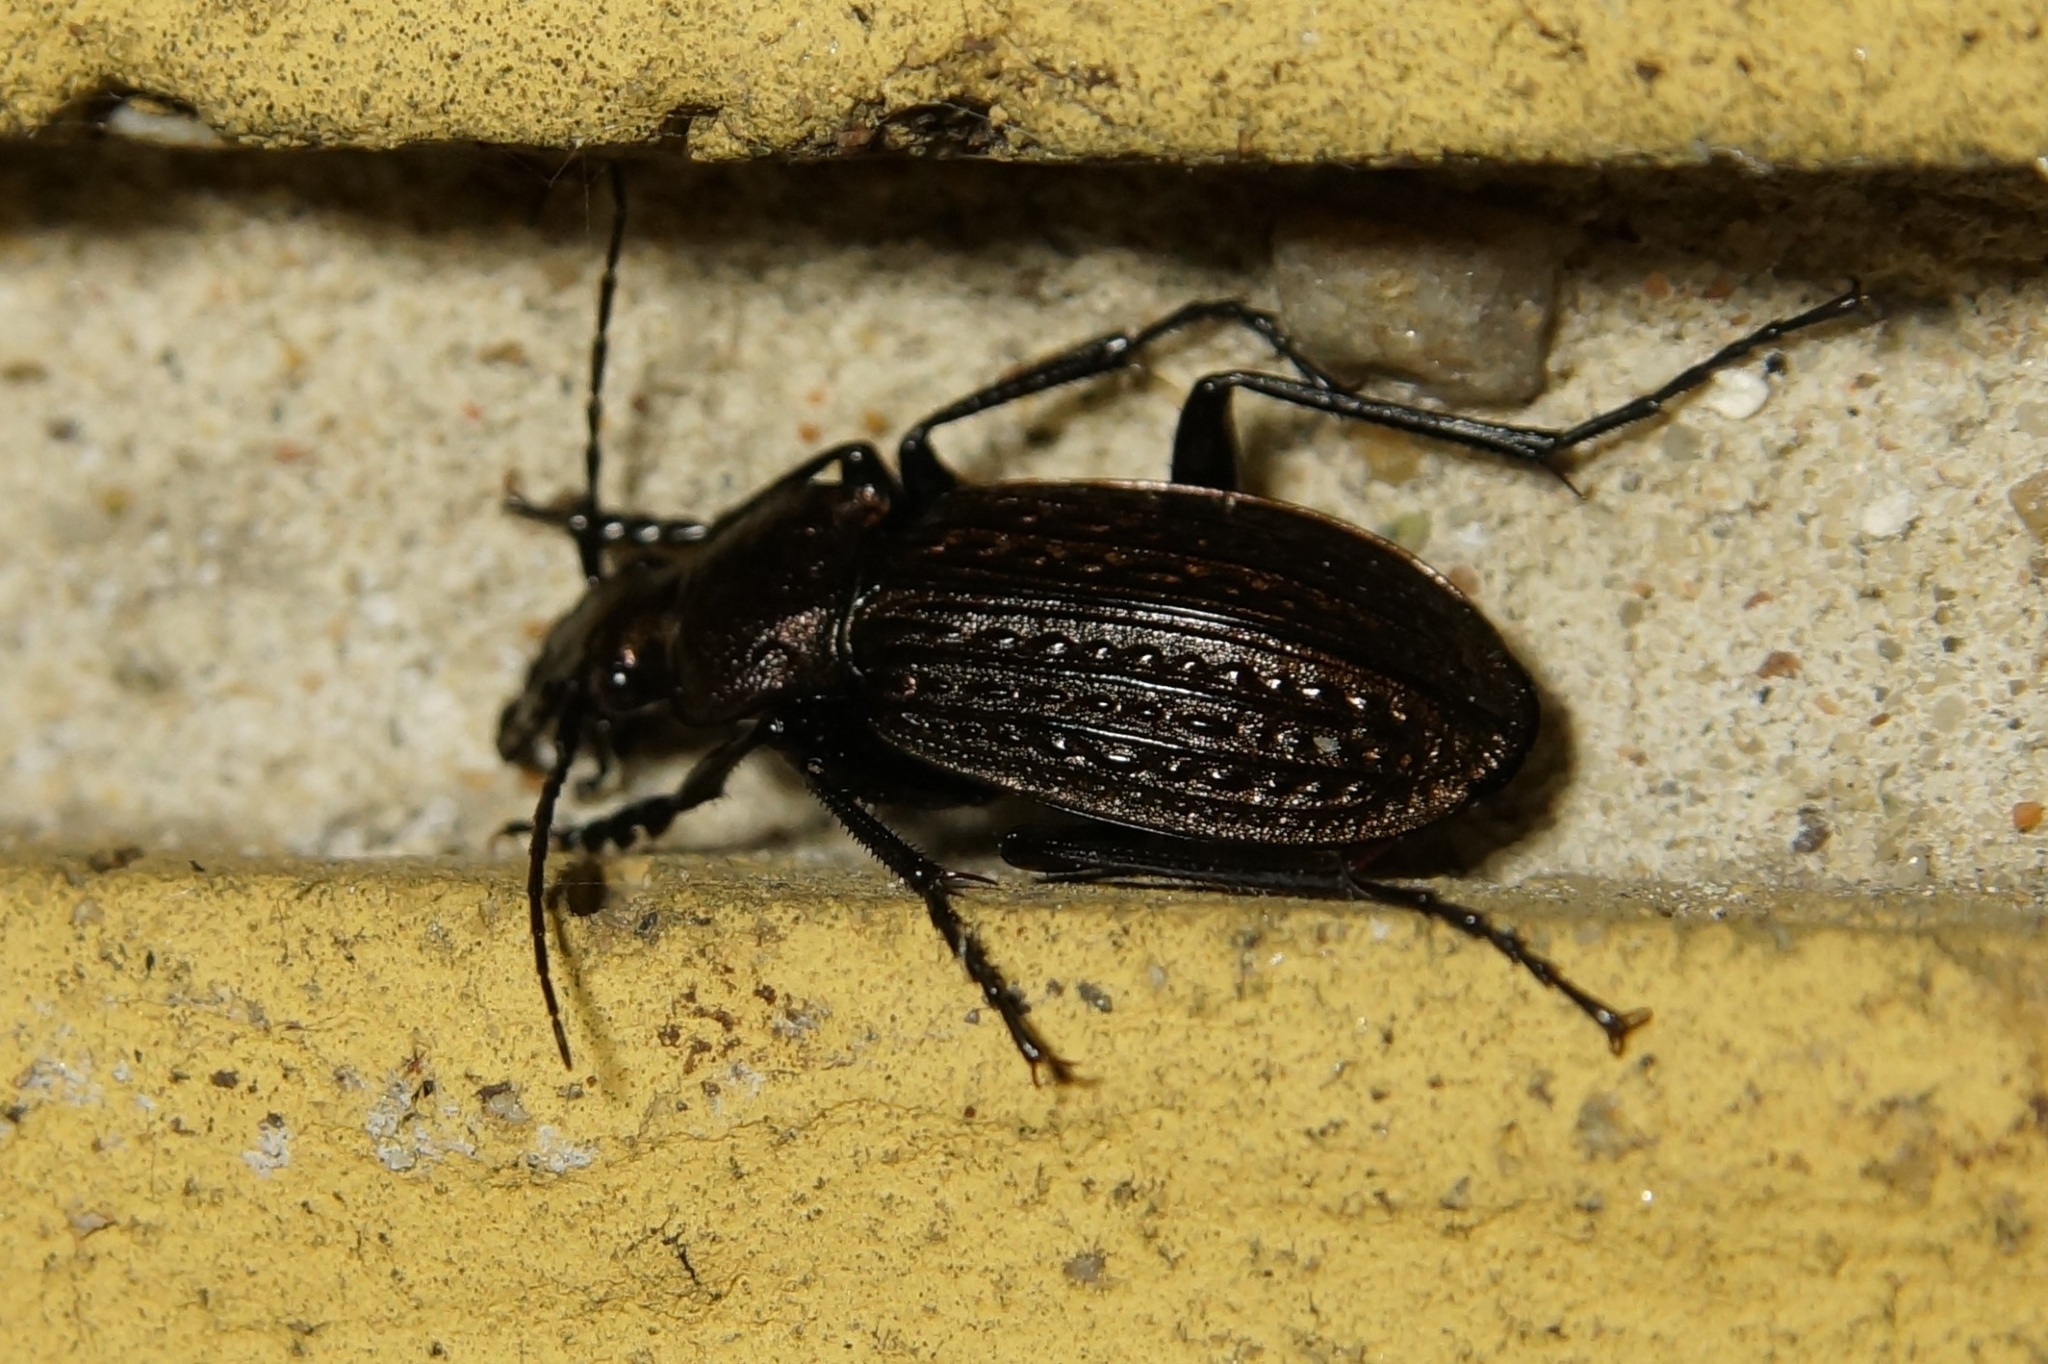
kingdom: Animalia
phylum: Arthropoda
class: Insecta
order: Coleoptera
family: Carabidae
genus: Carabus
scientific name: Carabus granulatus
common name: Granulate ground beetle
